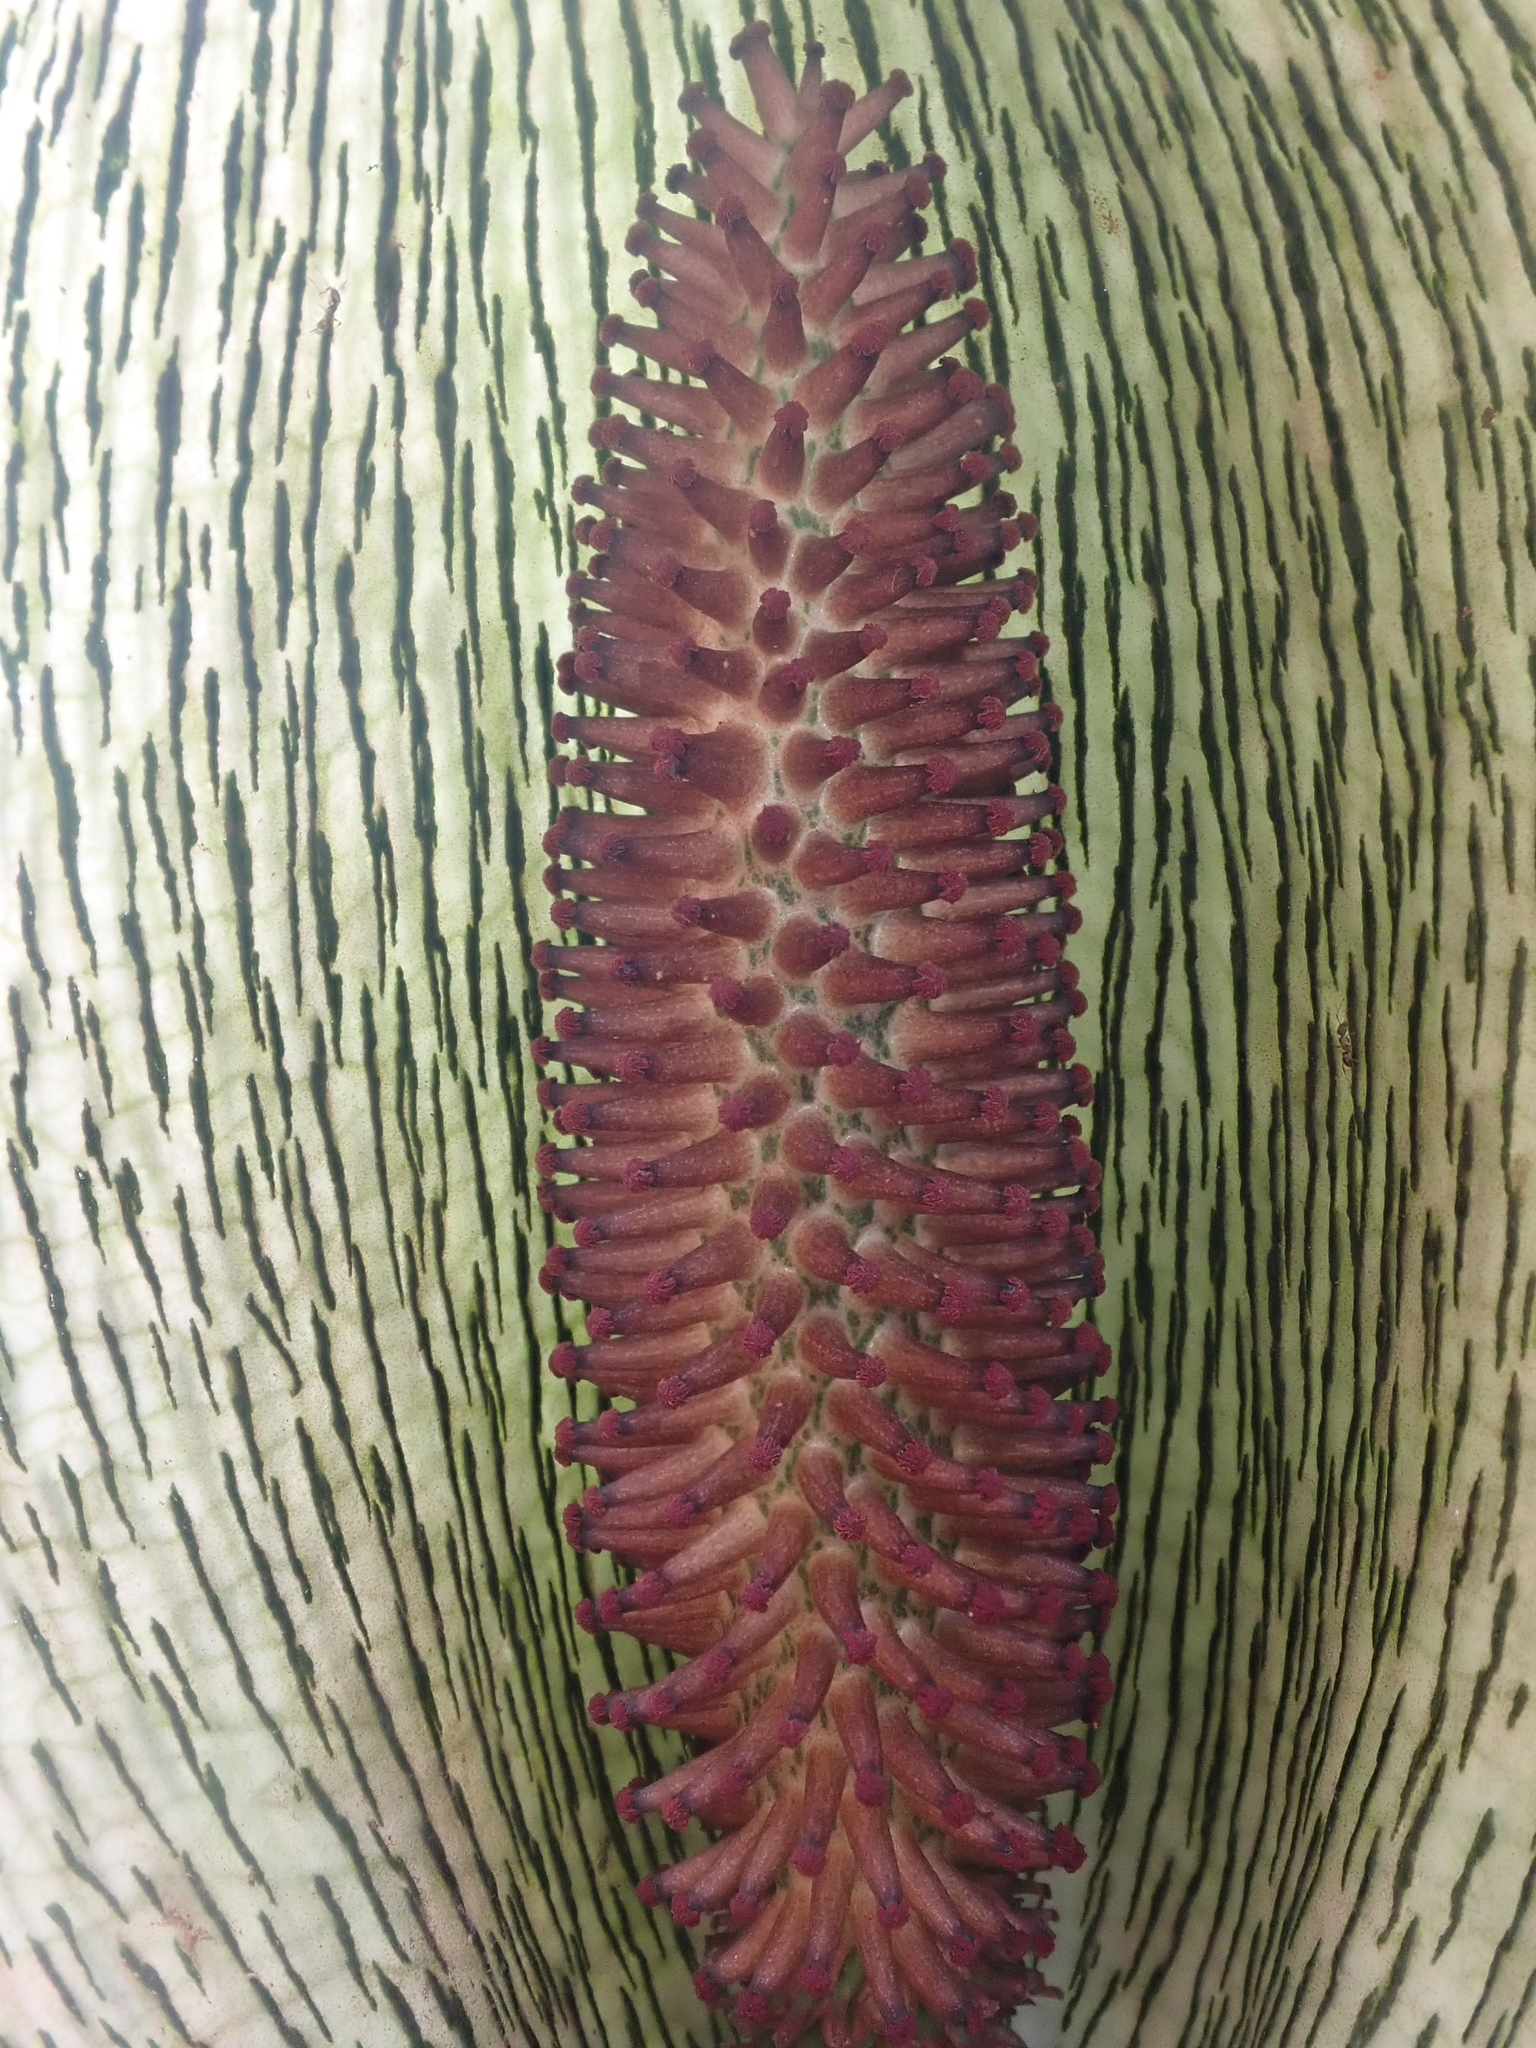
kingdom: Plantae
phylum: Tracheophyta
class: Liliopsida
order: Alismatales
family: Araceae
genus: Synandrospadix
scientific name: Synandrospadix vermitoxicus
